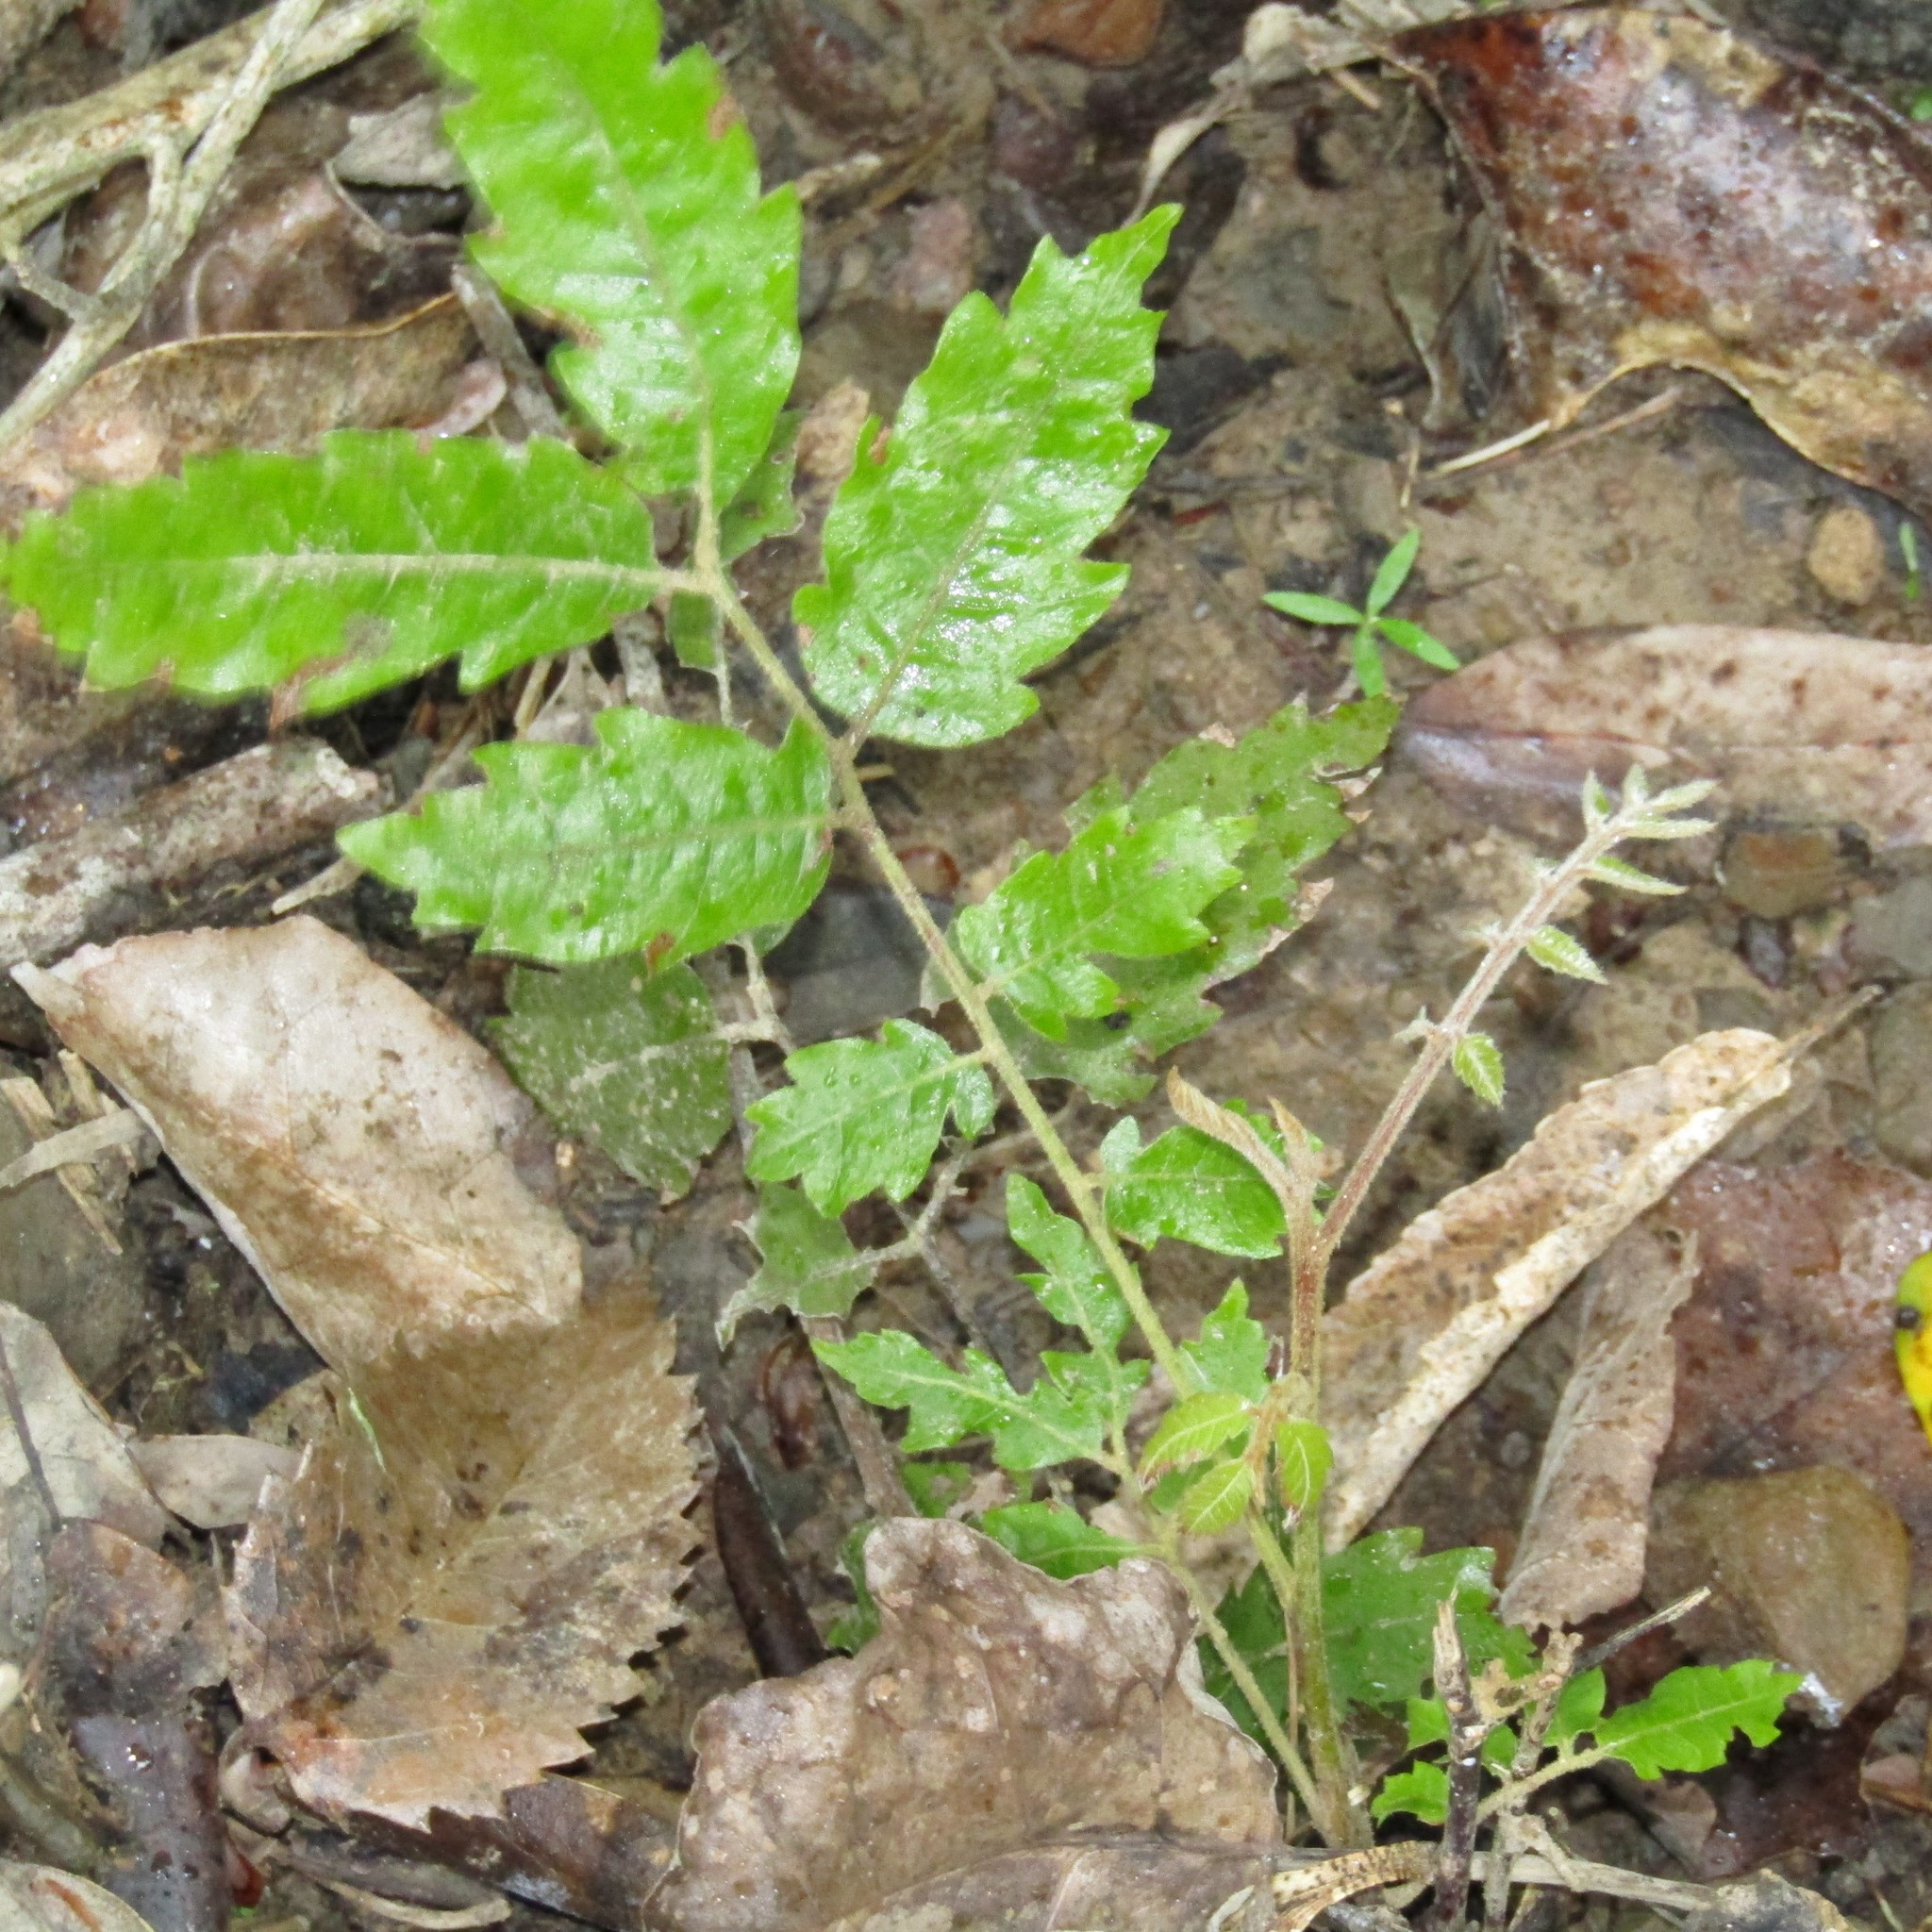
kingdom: Plantae
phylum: Tracheophyta
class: Magnoliopsida
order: Sapindales
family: Sapindaceae
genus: Alectryon
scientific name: Alectryon excelsus
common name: Three kings titoki
